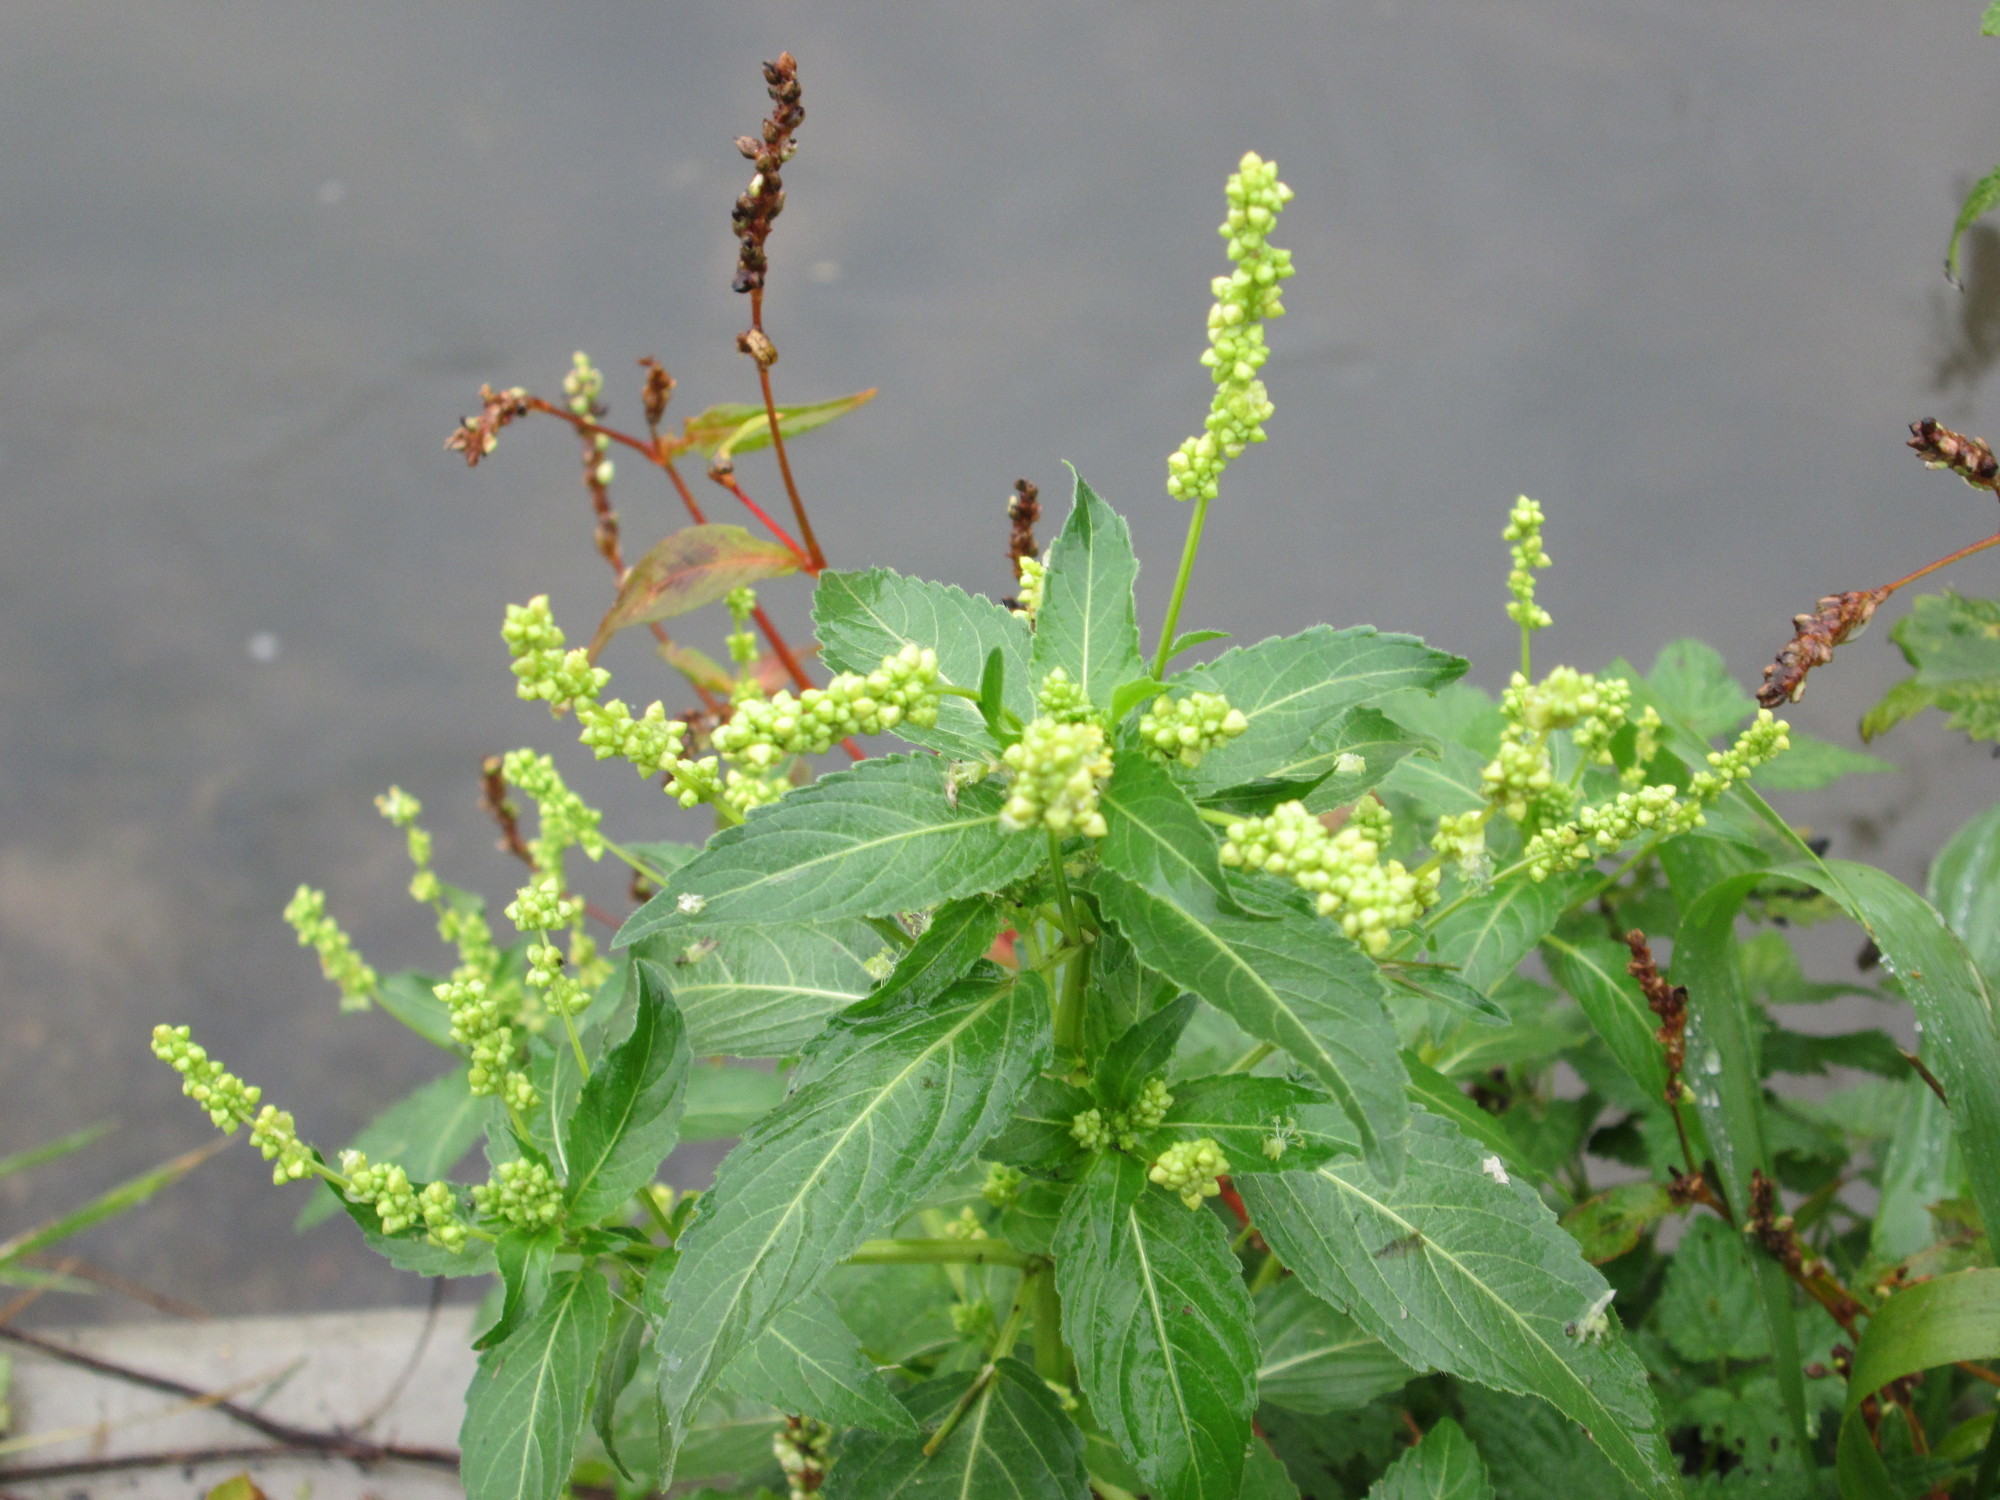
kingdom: Plantae
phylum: Tracheophyta
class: Magnoliopsida
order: Malpighiales
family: Euphorbiaceae
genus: Mercurialis
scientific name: Mercurialis annua
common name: Annual mercury
